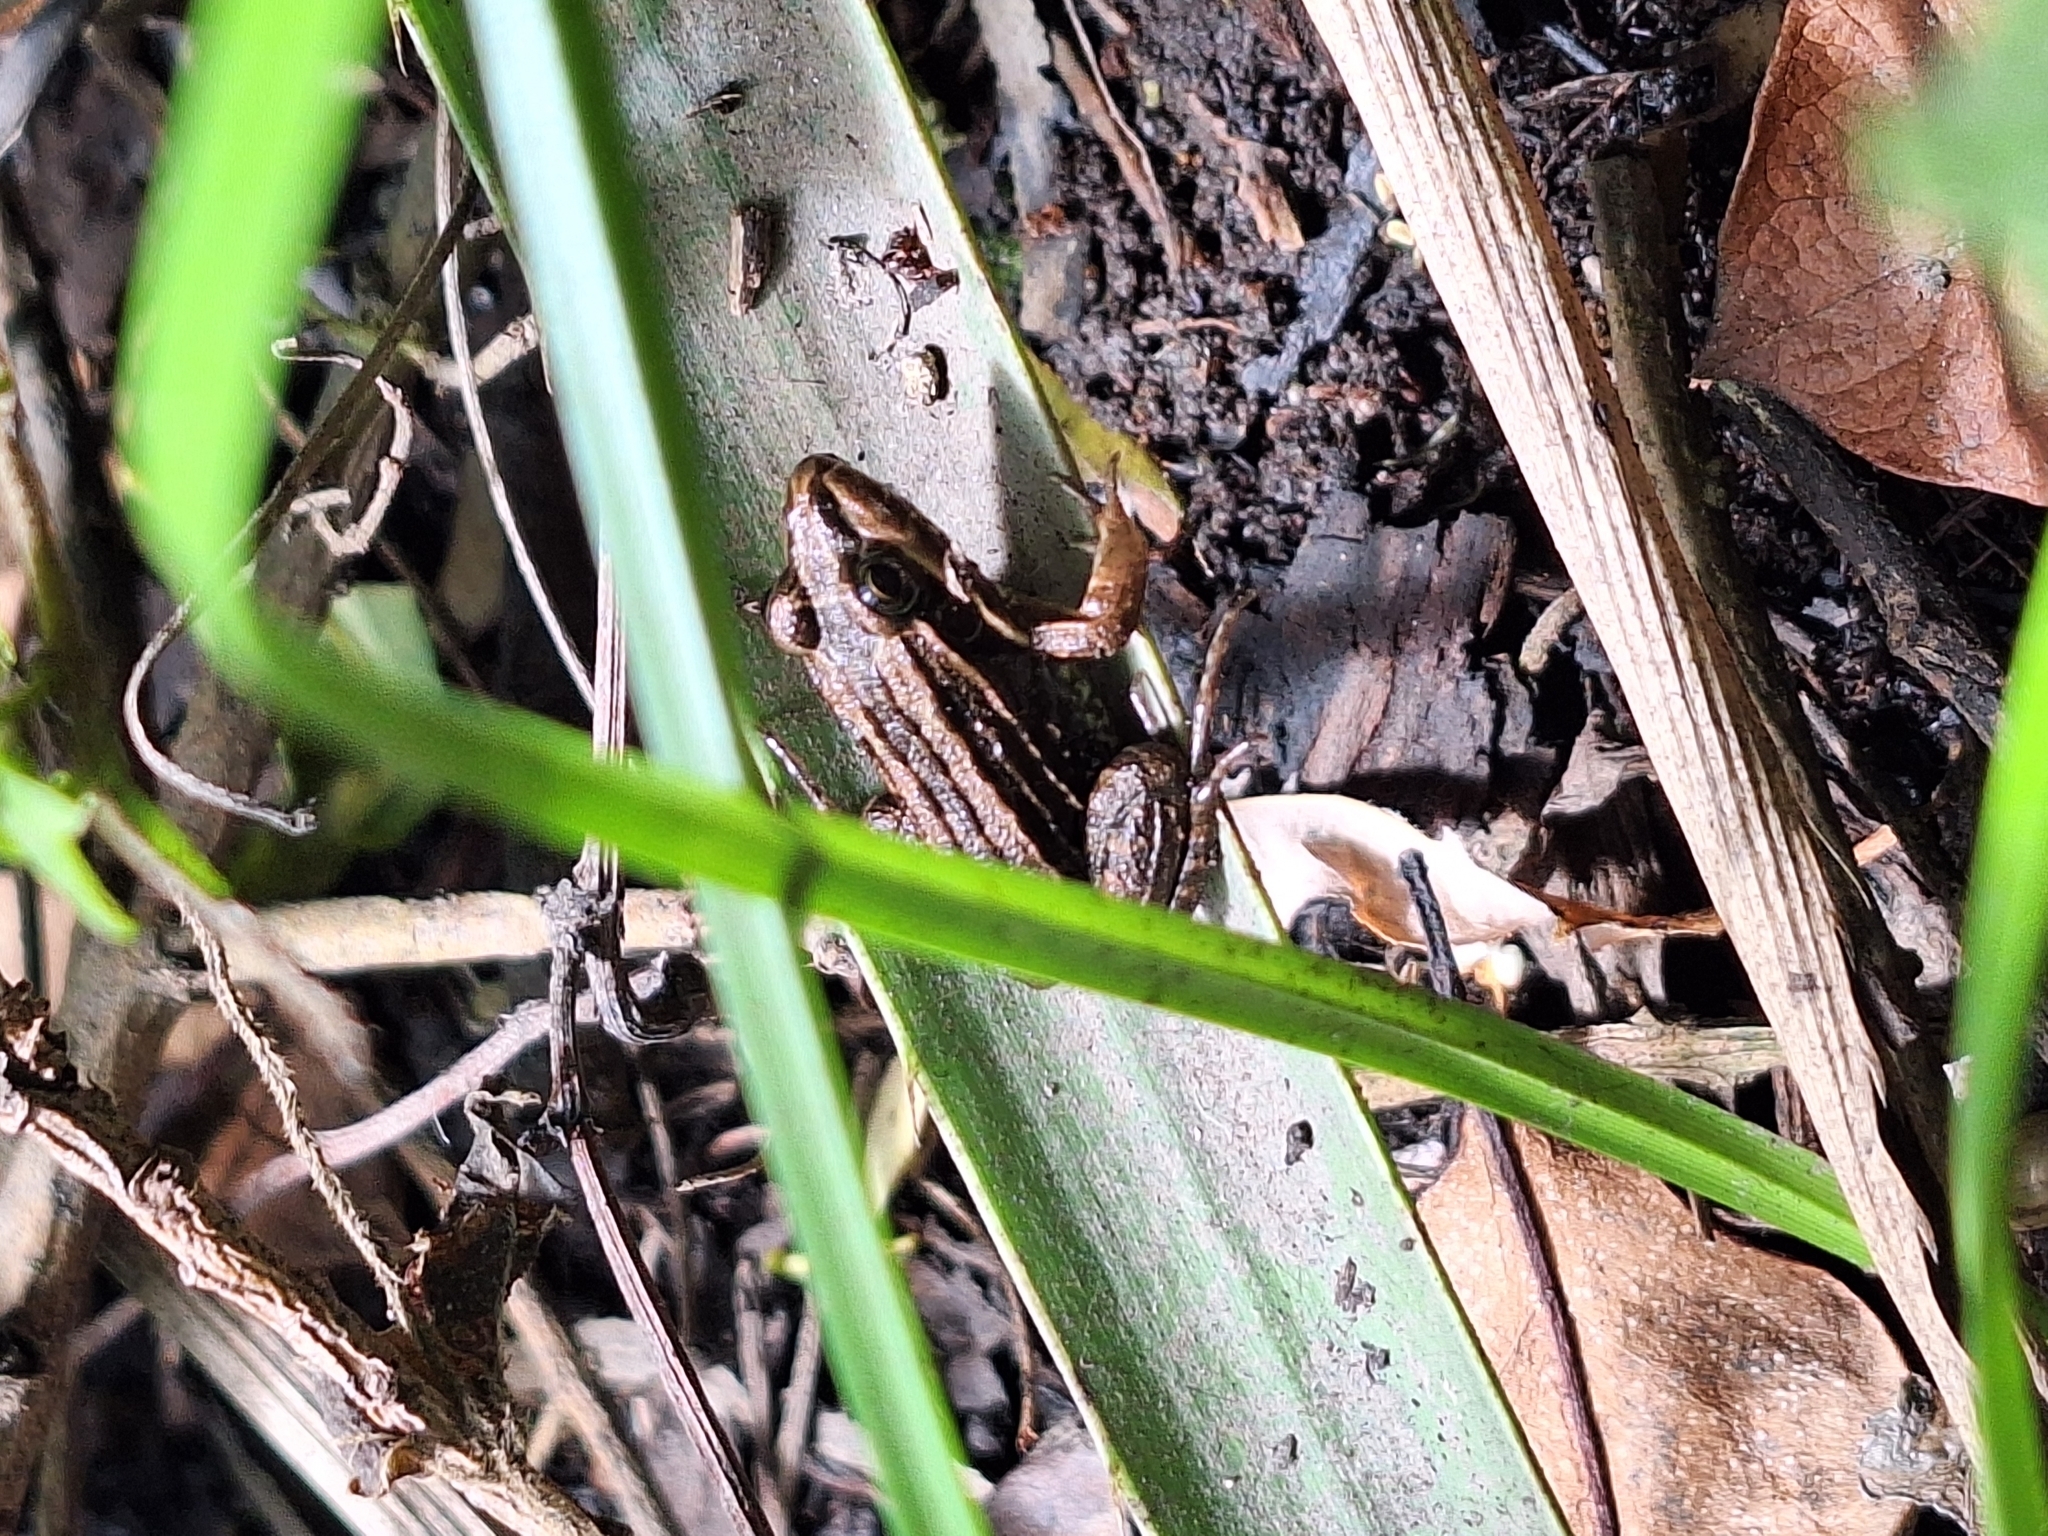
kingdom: Animalia
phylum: Chordata
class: Amphibia
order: Anura
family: Leptodactylidae
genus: Leptodactylus
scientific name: Leptodactylus luctator
